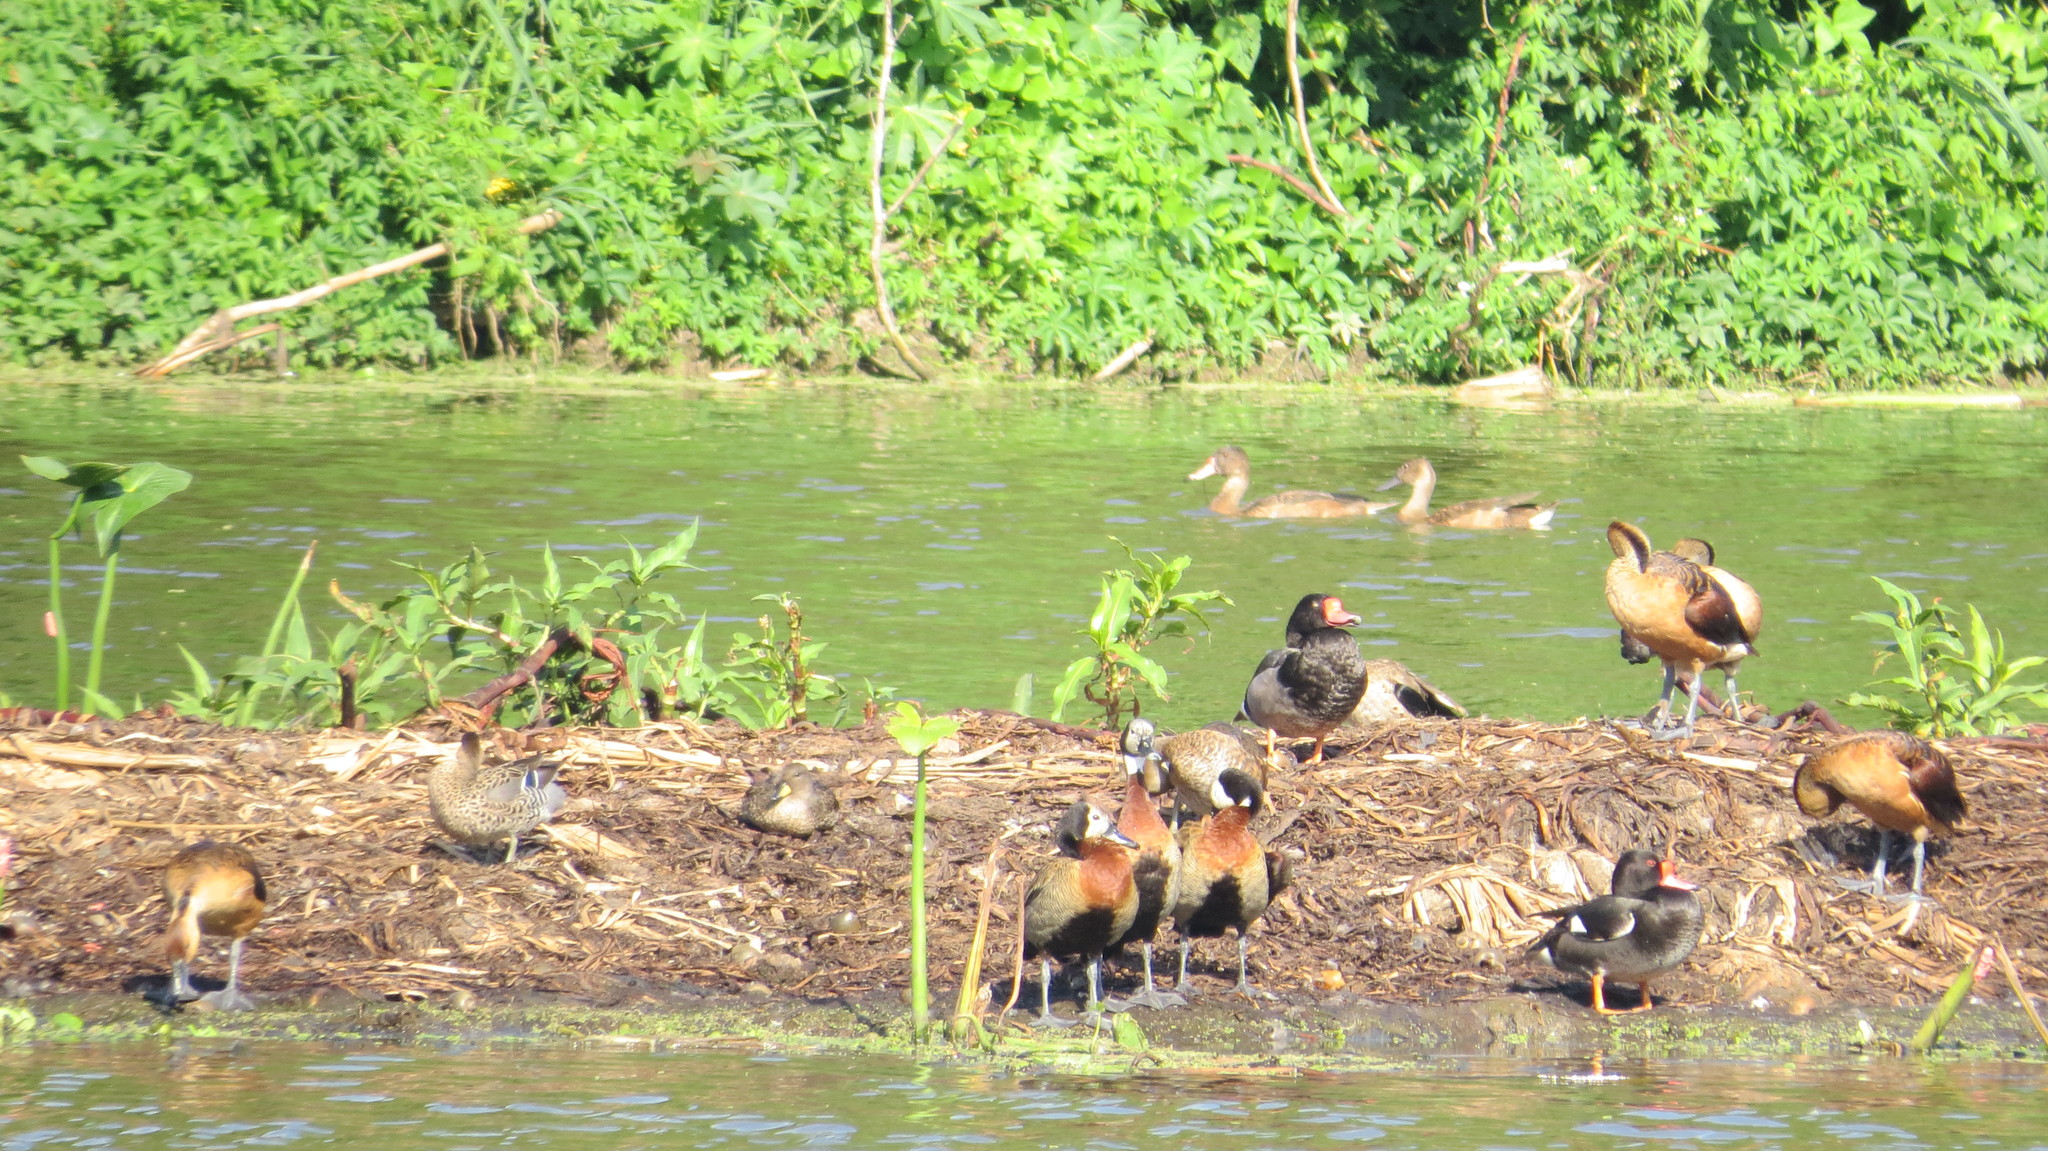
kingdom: Animalia
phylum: Chordata
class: Aves
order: Anseriformes
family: Anatidae
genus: Dendrocygna
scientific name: Dendrocygna viduata
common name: White-faced whistling duck
